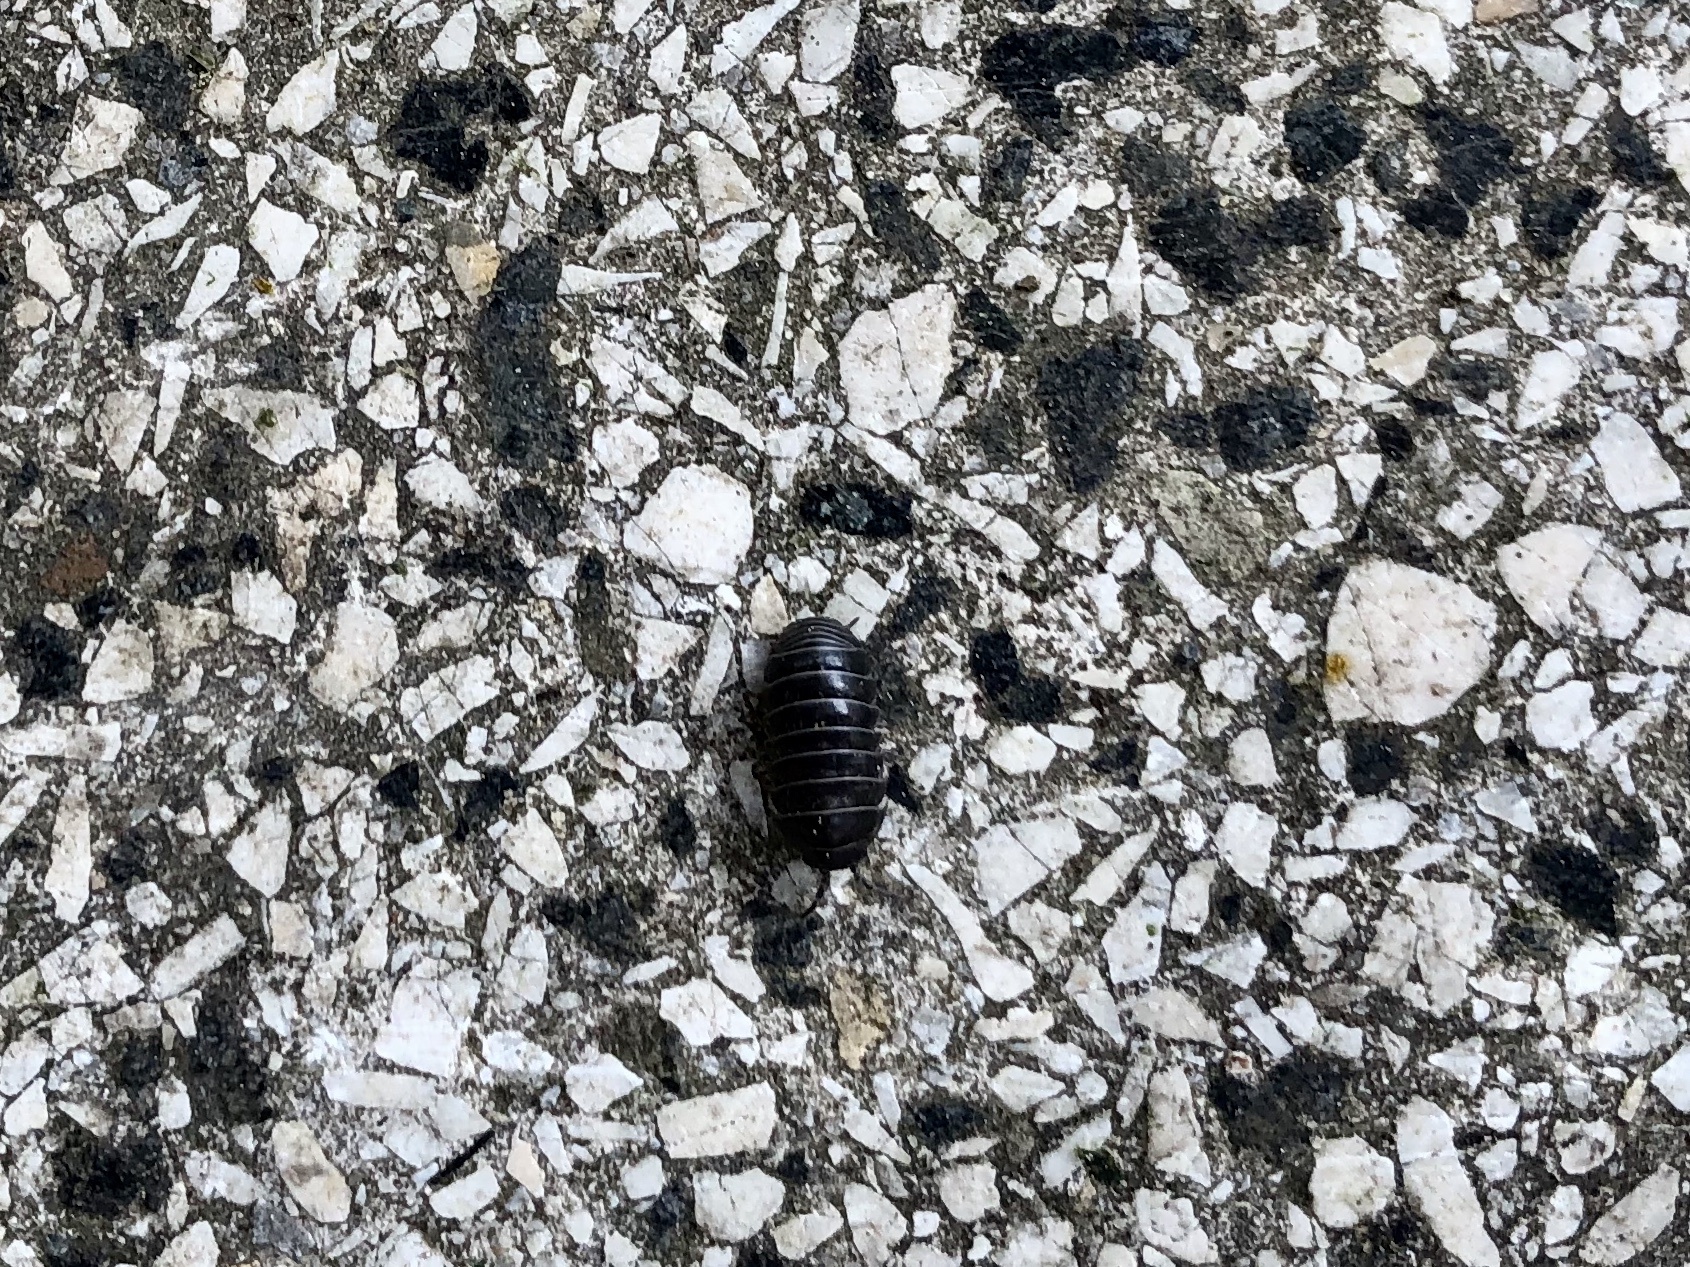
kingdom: Animalia
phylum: Arthropoda
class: Malacostraca
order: Isopoda
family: Armadillidiidae
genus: Armadillidium
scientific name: Armadillidium vulgare
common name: Common pill woodlouse
